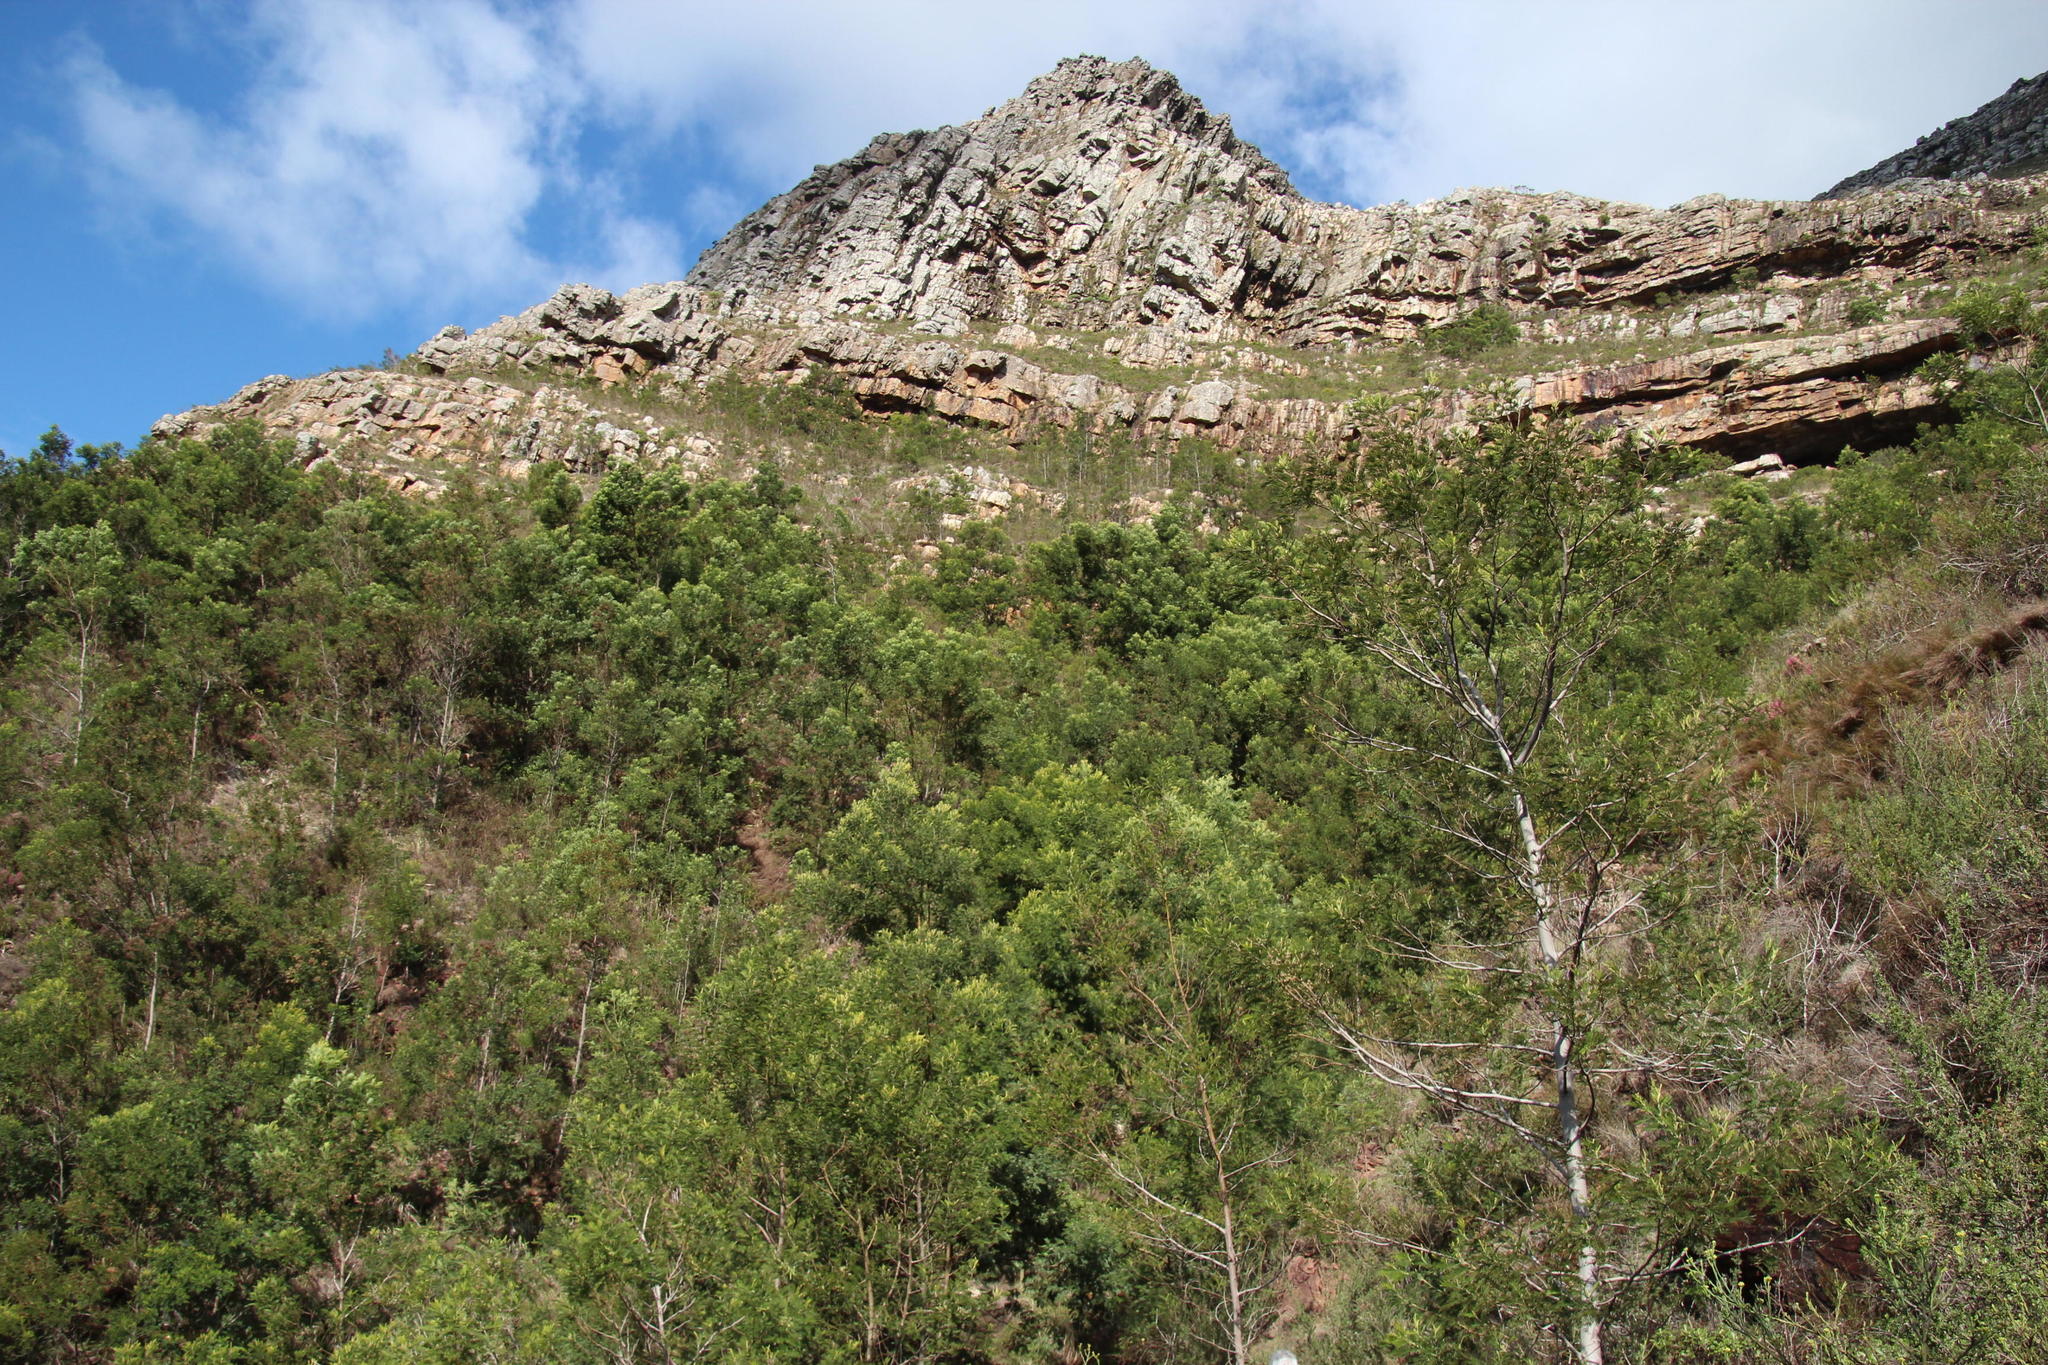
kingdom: Plantae
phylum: Tracheophyta
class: Magnoliopsida
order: Fabales
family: Fabaceae
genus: Acacia
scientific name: Acacia mearnsii
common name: Black wattle
